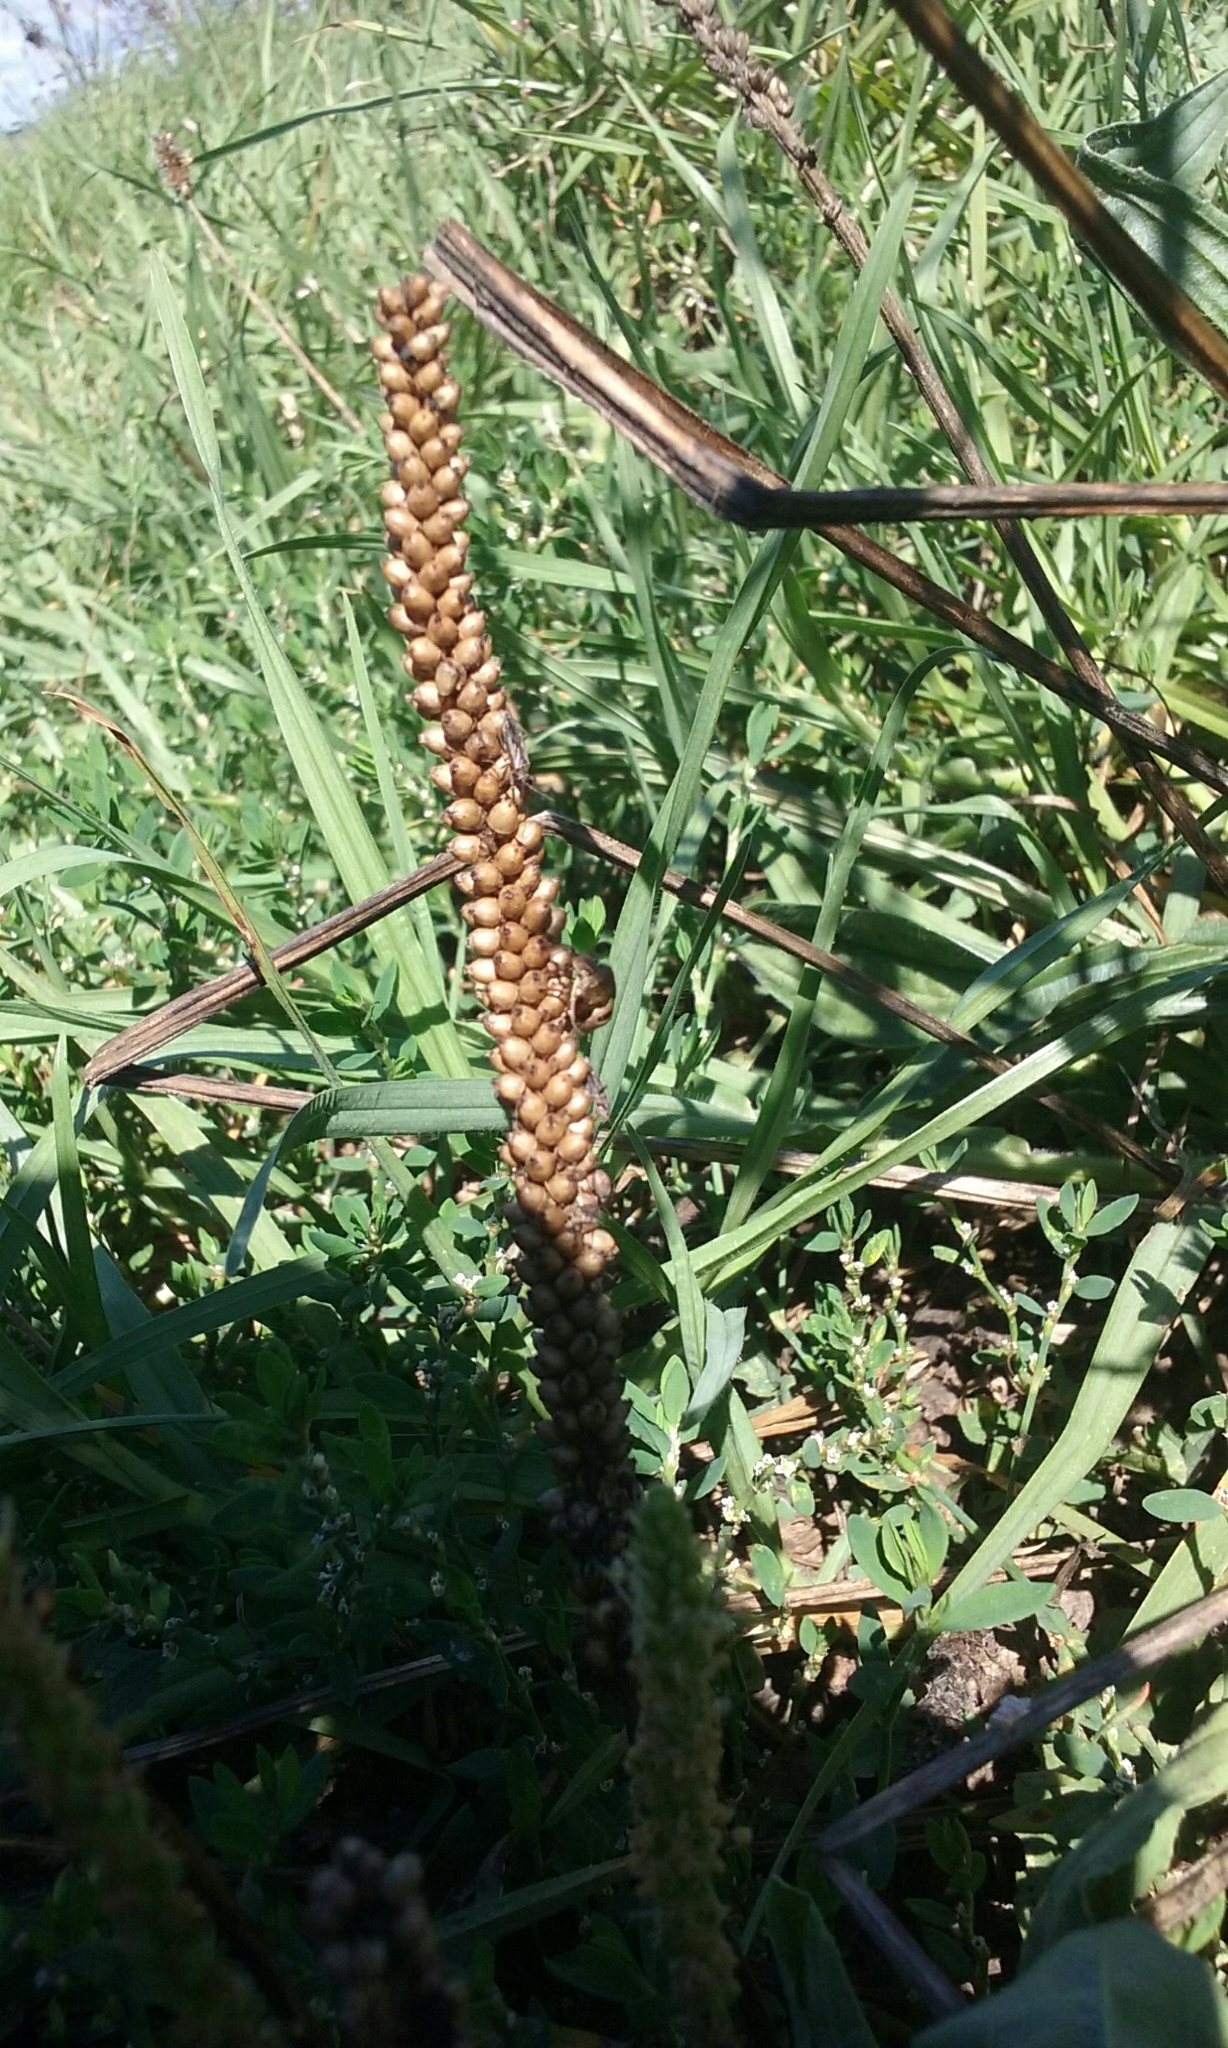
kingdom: Animalia
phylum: Arthropoda
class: Insecta
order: Hemiptera
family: Pentatomidae
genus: Dictyotus
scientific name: Dictyotus caenosus
